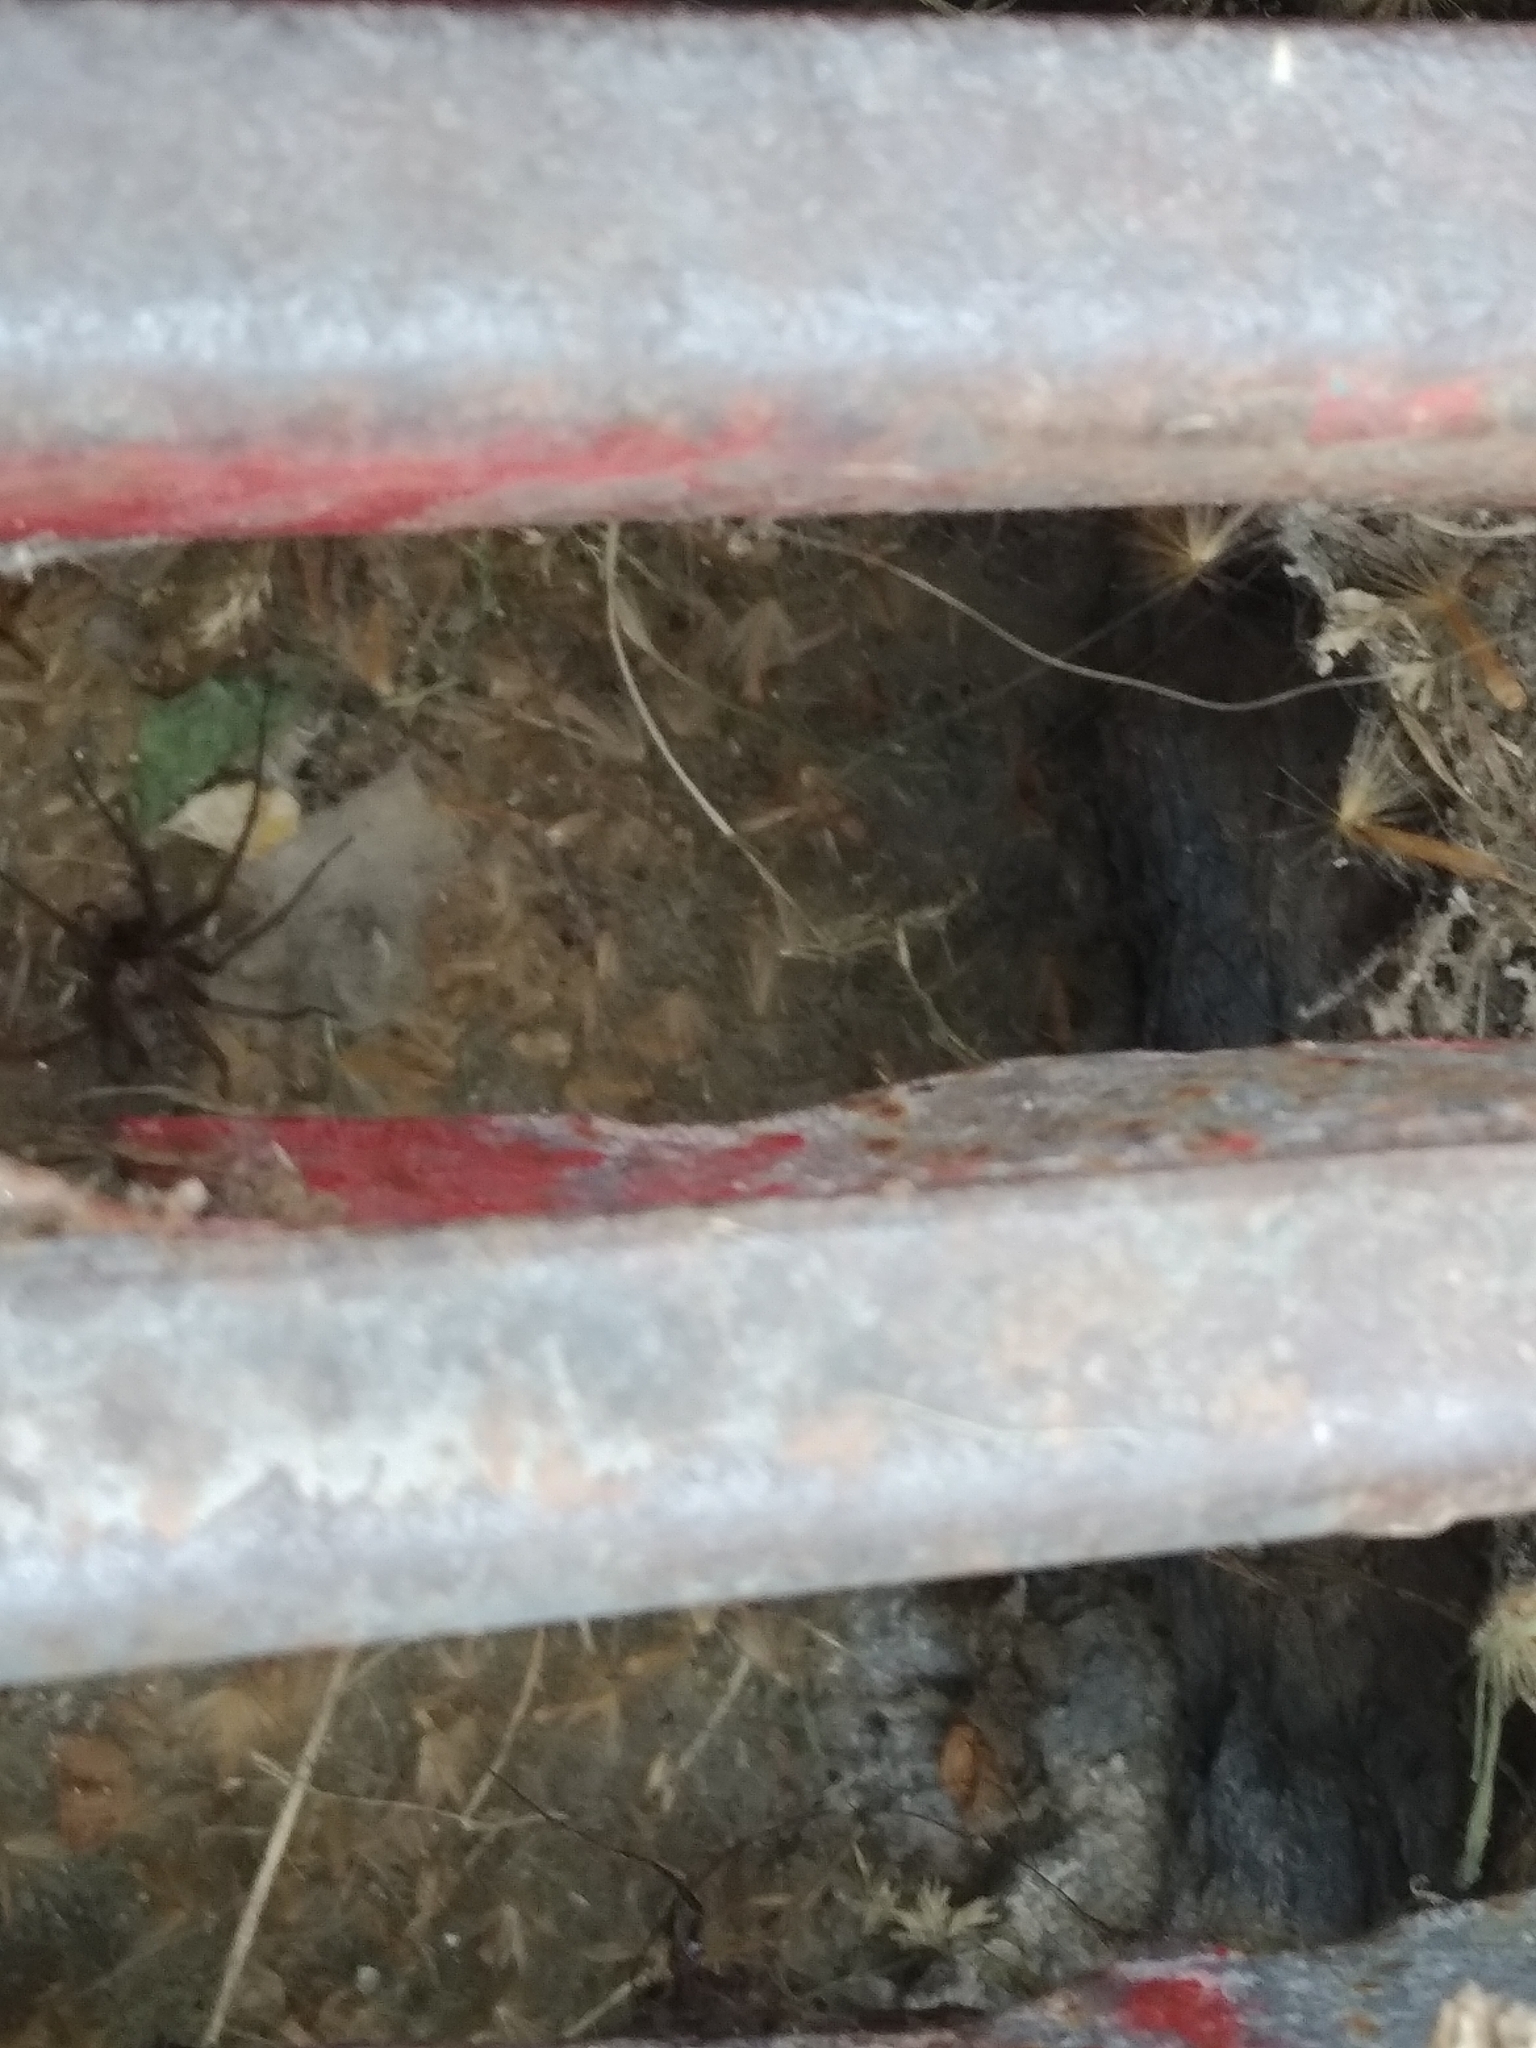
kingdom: Animalia
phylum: Arthropoda
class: Arachnida
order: Araneae
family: Agelenidae
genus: Tegenaria
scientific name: Tegenaria domestica
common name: Barn funnel weaver
